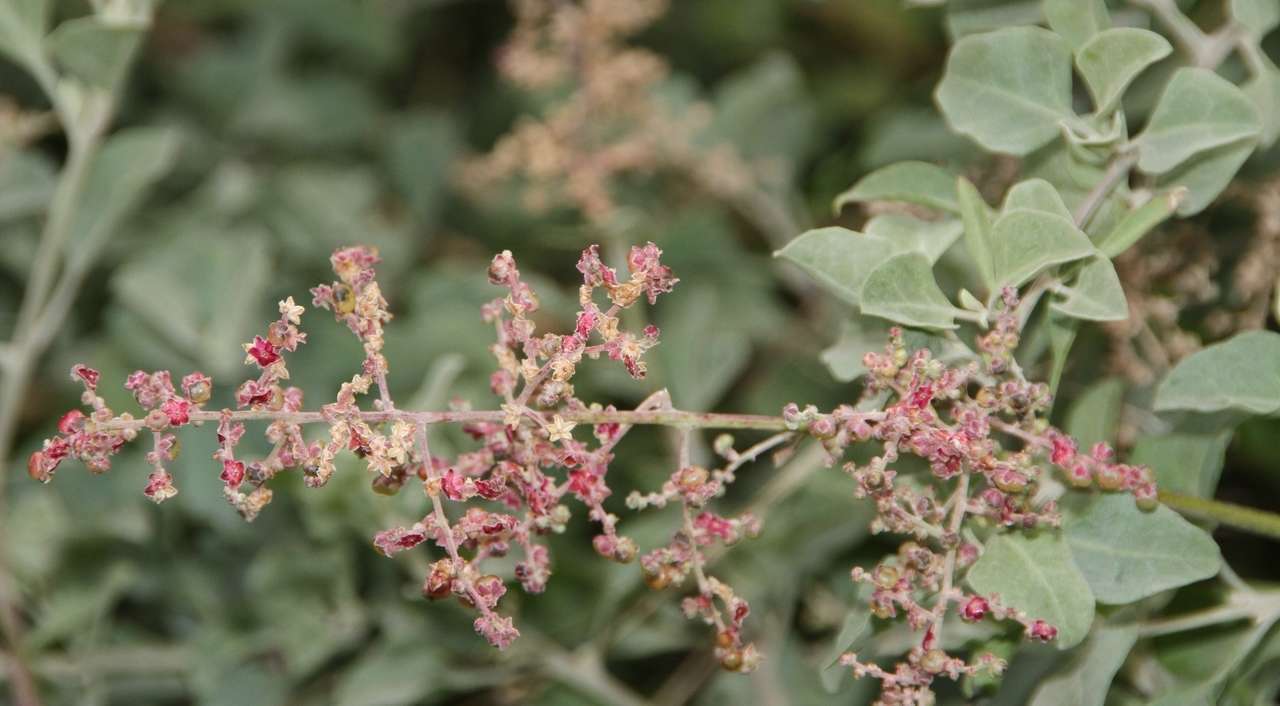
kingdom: Plantae
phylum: Tracheophyta
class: Magnoliopsida
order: Caryophyllales
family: Amaranthaceae
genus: Chenopodium
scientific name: Chenopodium parabolicum
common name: Old-man-saltbush
